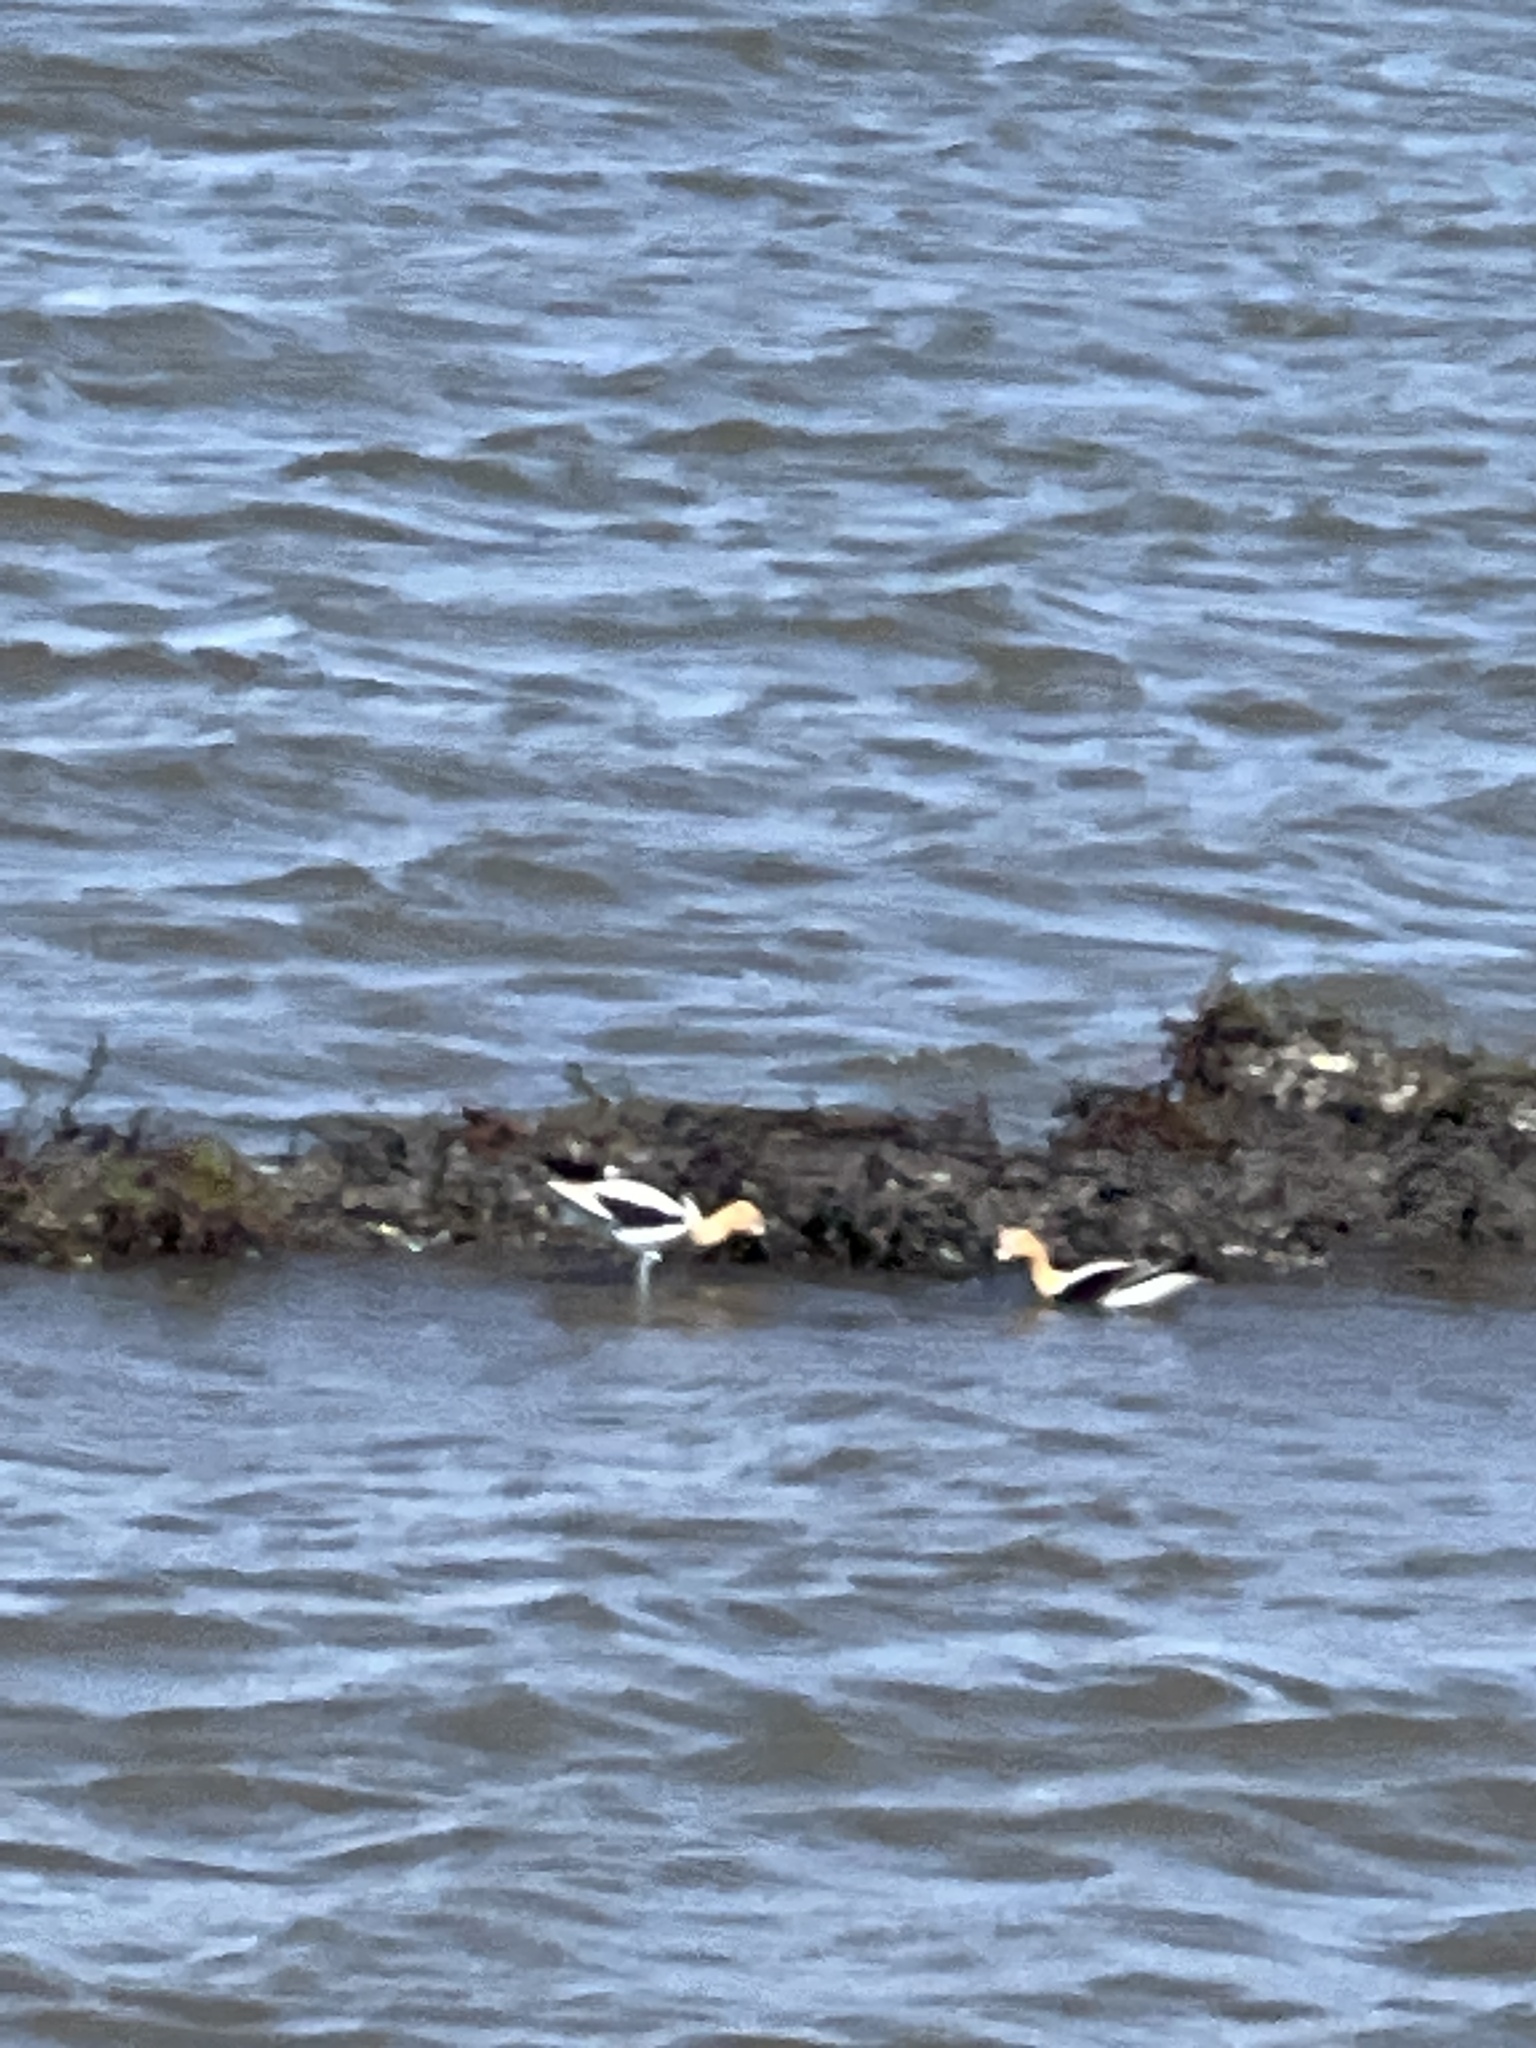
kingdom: Animalia
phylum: Chordata
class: Aves
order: Charadriiformes
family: Recurvirostridae
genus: Recurvirostra
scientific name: Recurvirostra americana
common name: American avocet
